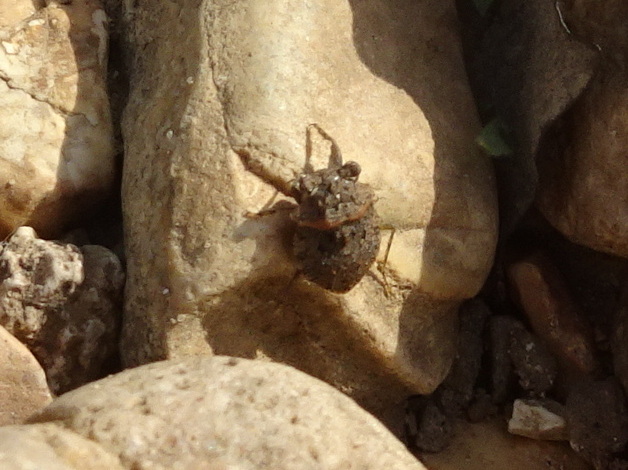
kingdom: Animalia
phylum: Arthropoda
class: Insecta
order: Hemiptera
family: Gelastocoridae
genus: Gelastocoris
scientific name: Gelastocoris oculatus
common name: Toad bug
